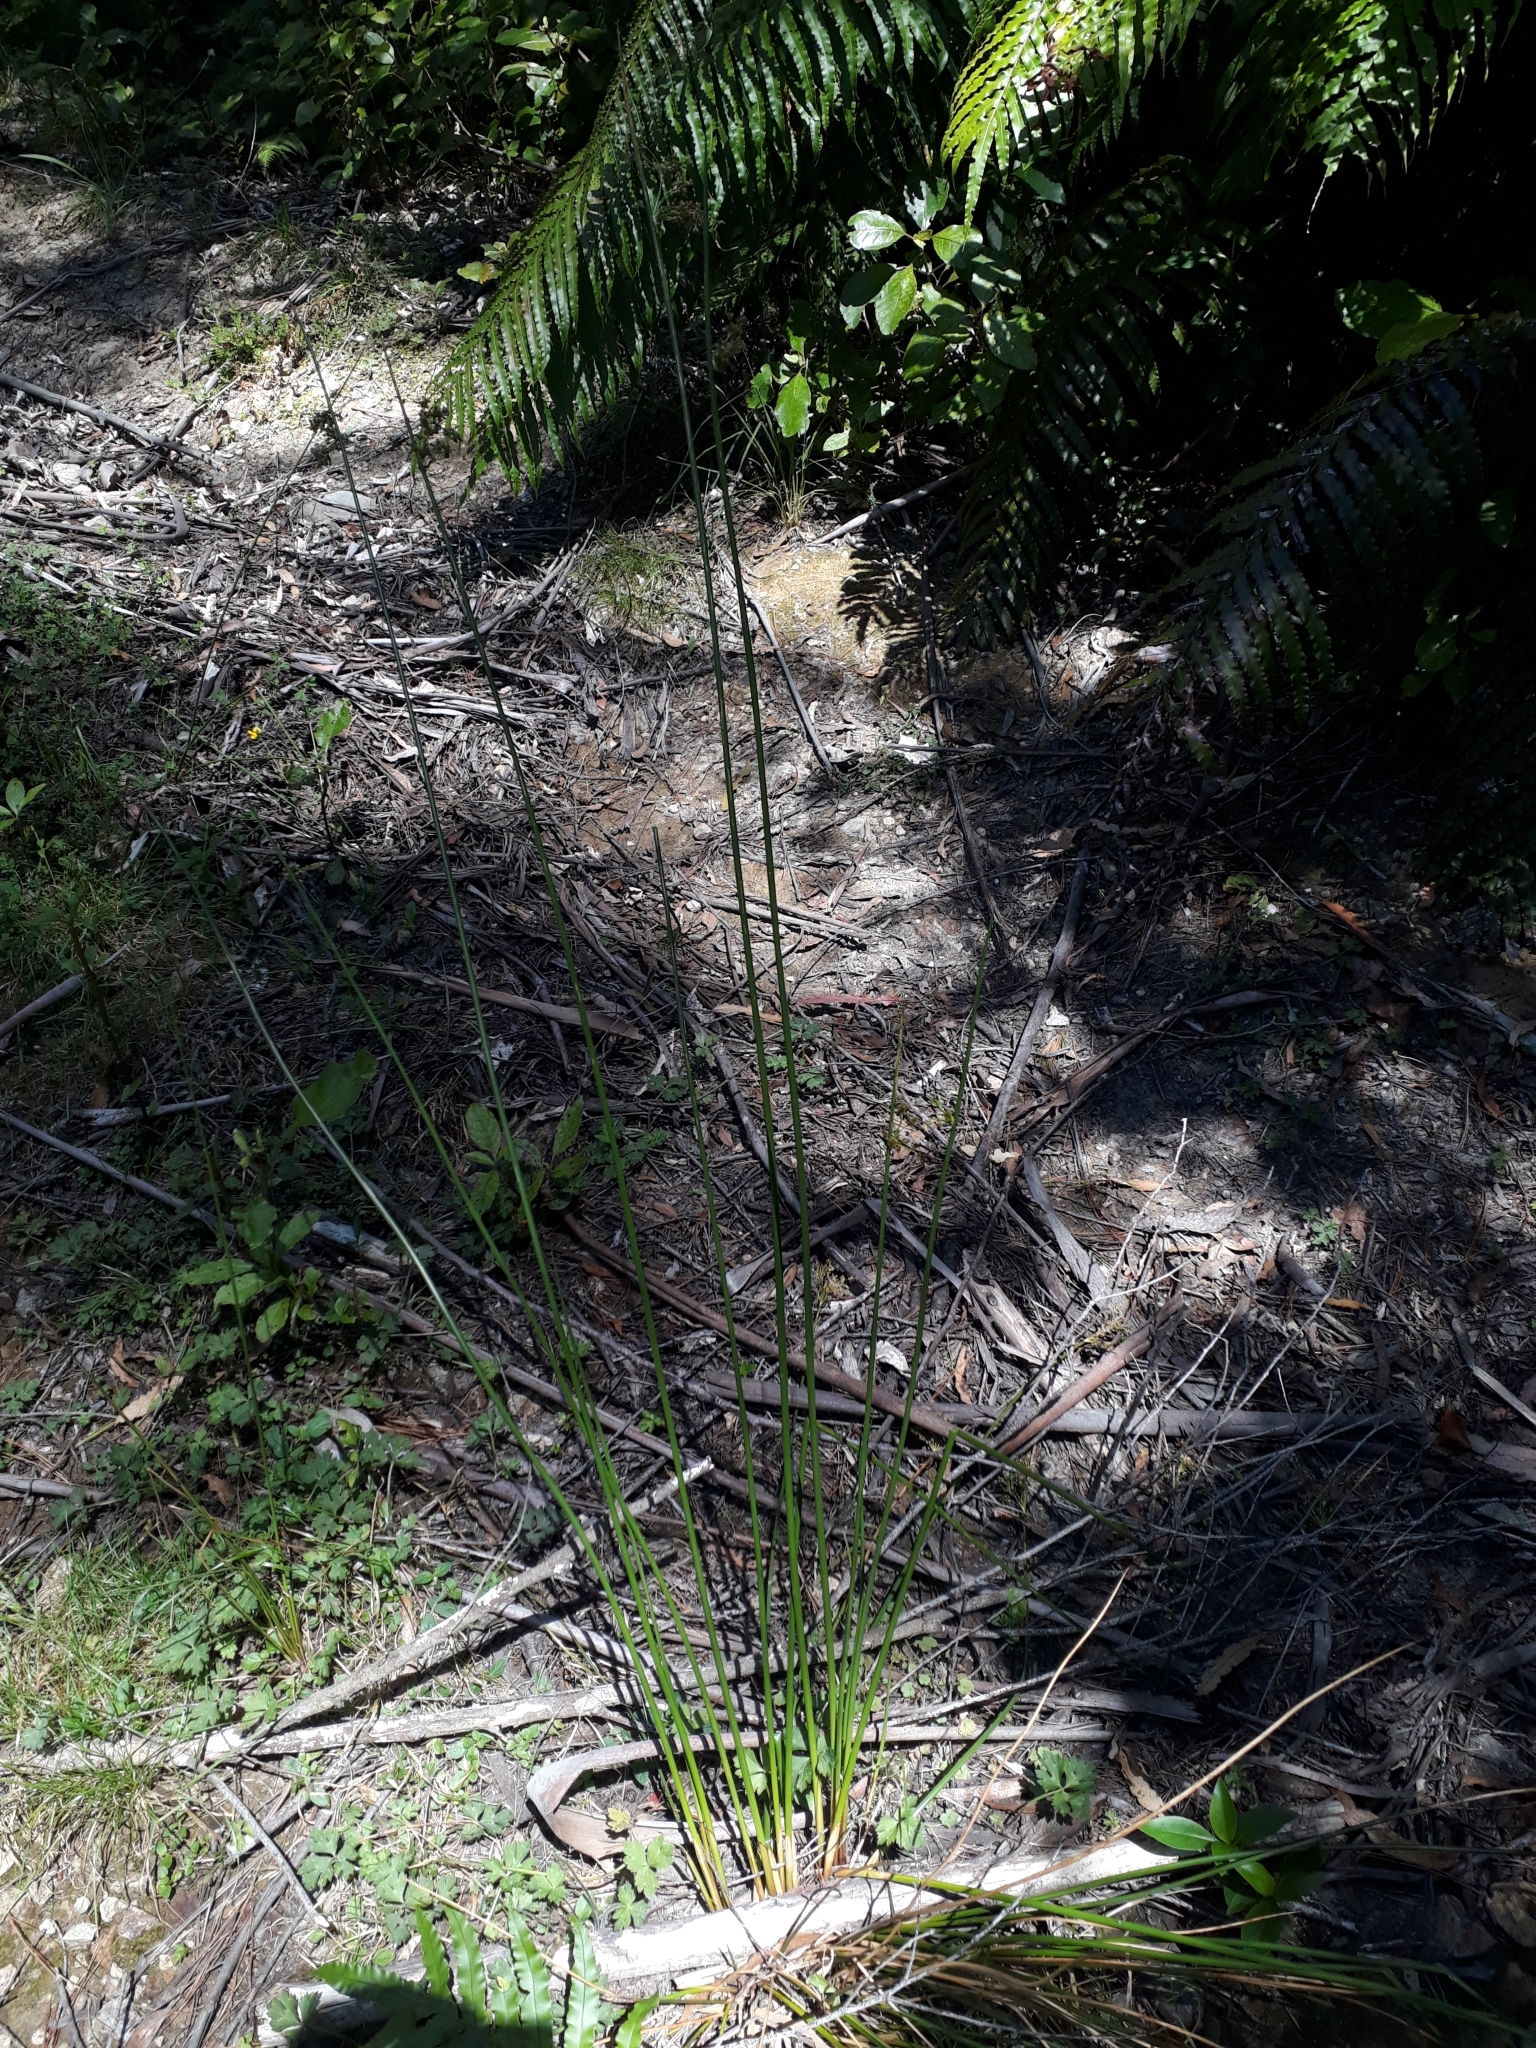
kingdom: Plantae
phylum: Tracheophyta
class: Liliopsida
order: Poales
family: Juncaceae
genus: Juncus
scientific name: Juncus effusus
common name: Soft rush
